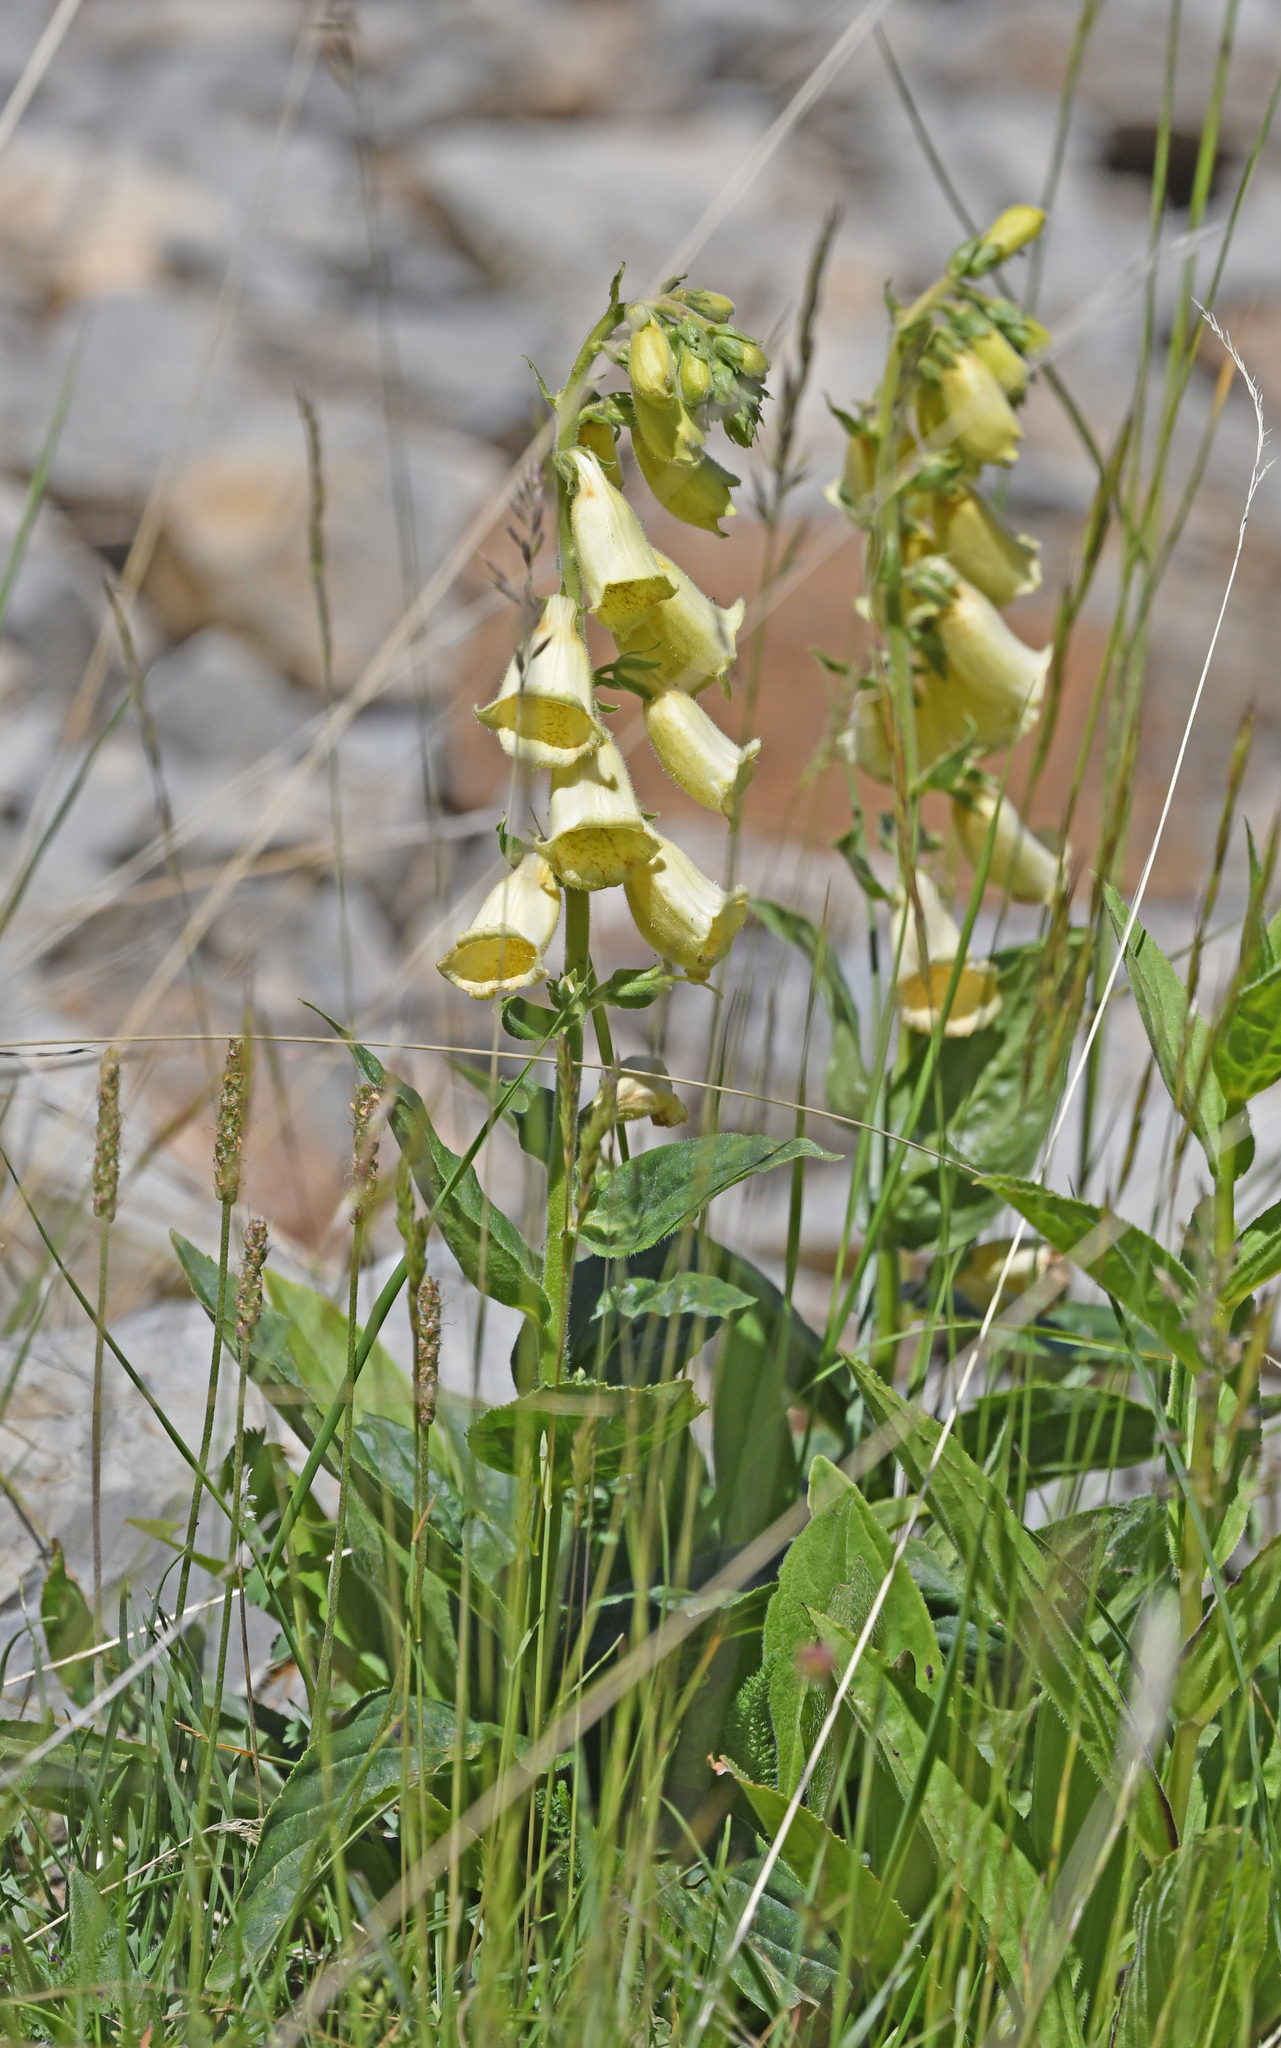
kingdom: Plantae
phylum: Tracheophyta
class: Magnoliopsida
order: Lamiales
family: Plantaginaceae
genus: Digitalis
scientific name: Digitalis grandiflora
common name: Yellow foxglove
